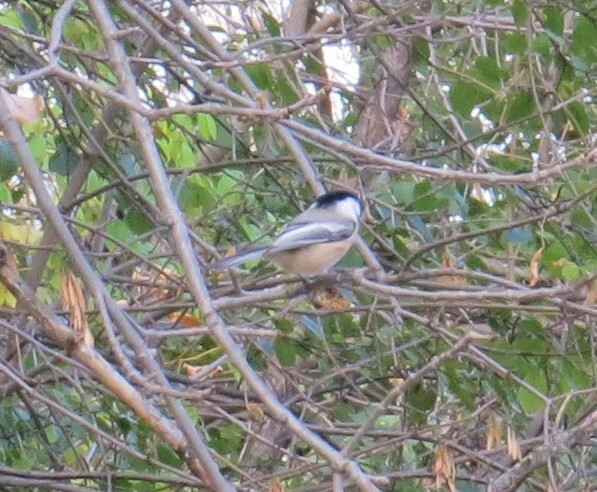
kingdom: Animalia
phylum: Chordata
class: Aves
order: Passeriformes
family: Paridae
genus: Poecile
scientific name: Poecile atricapillus
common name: Black-capped chickadee
